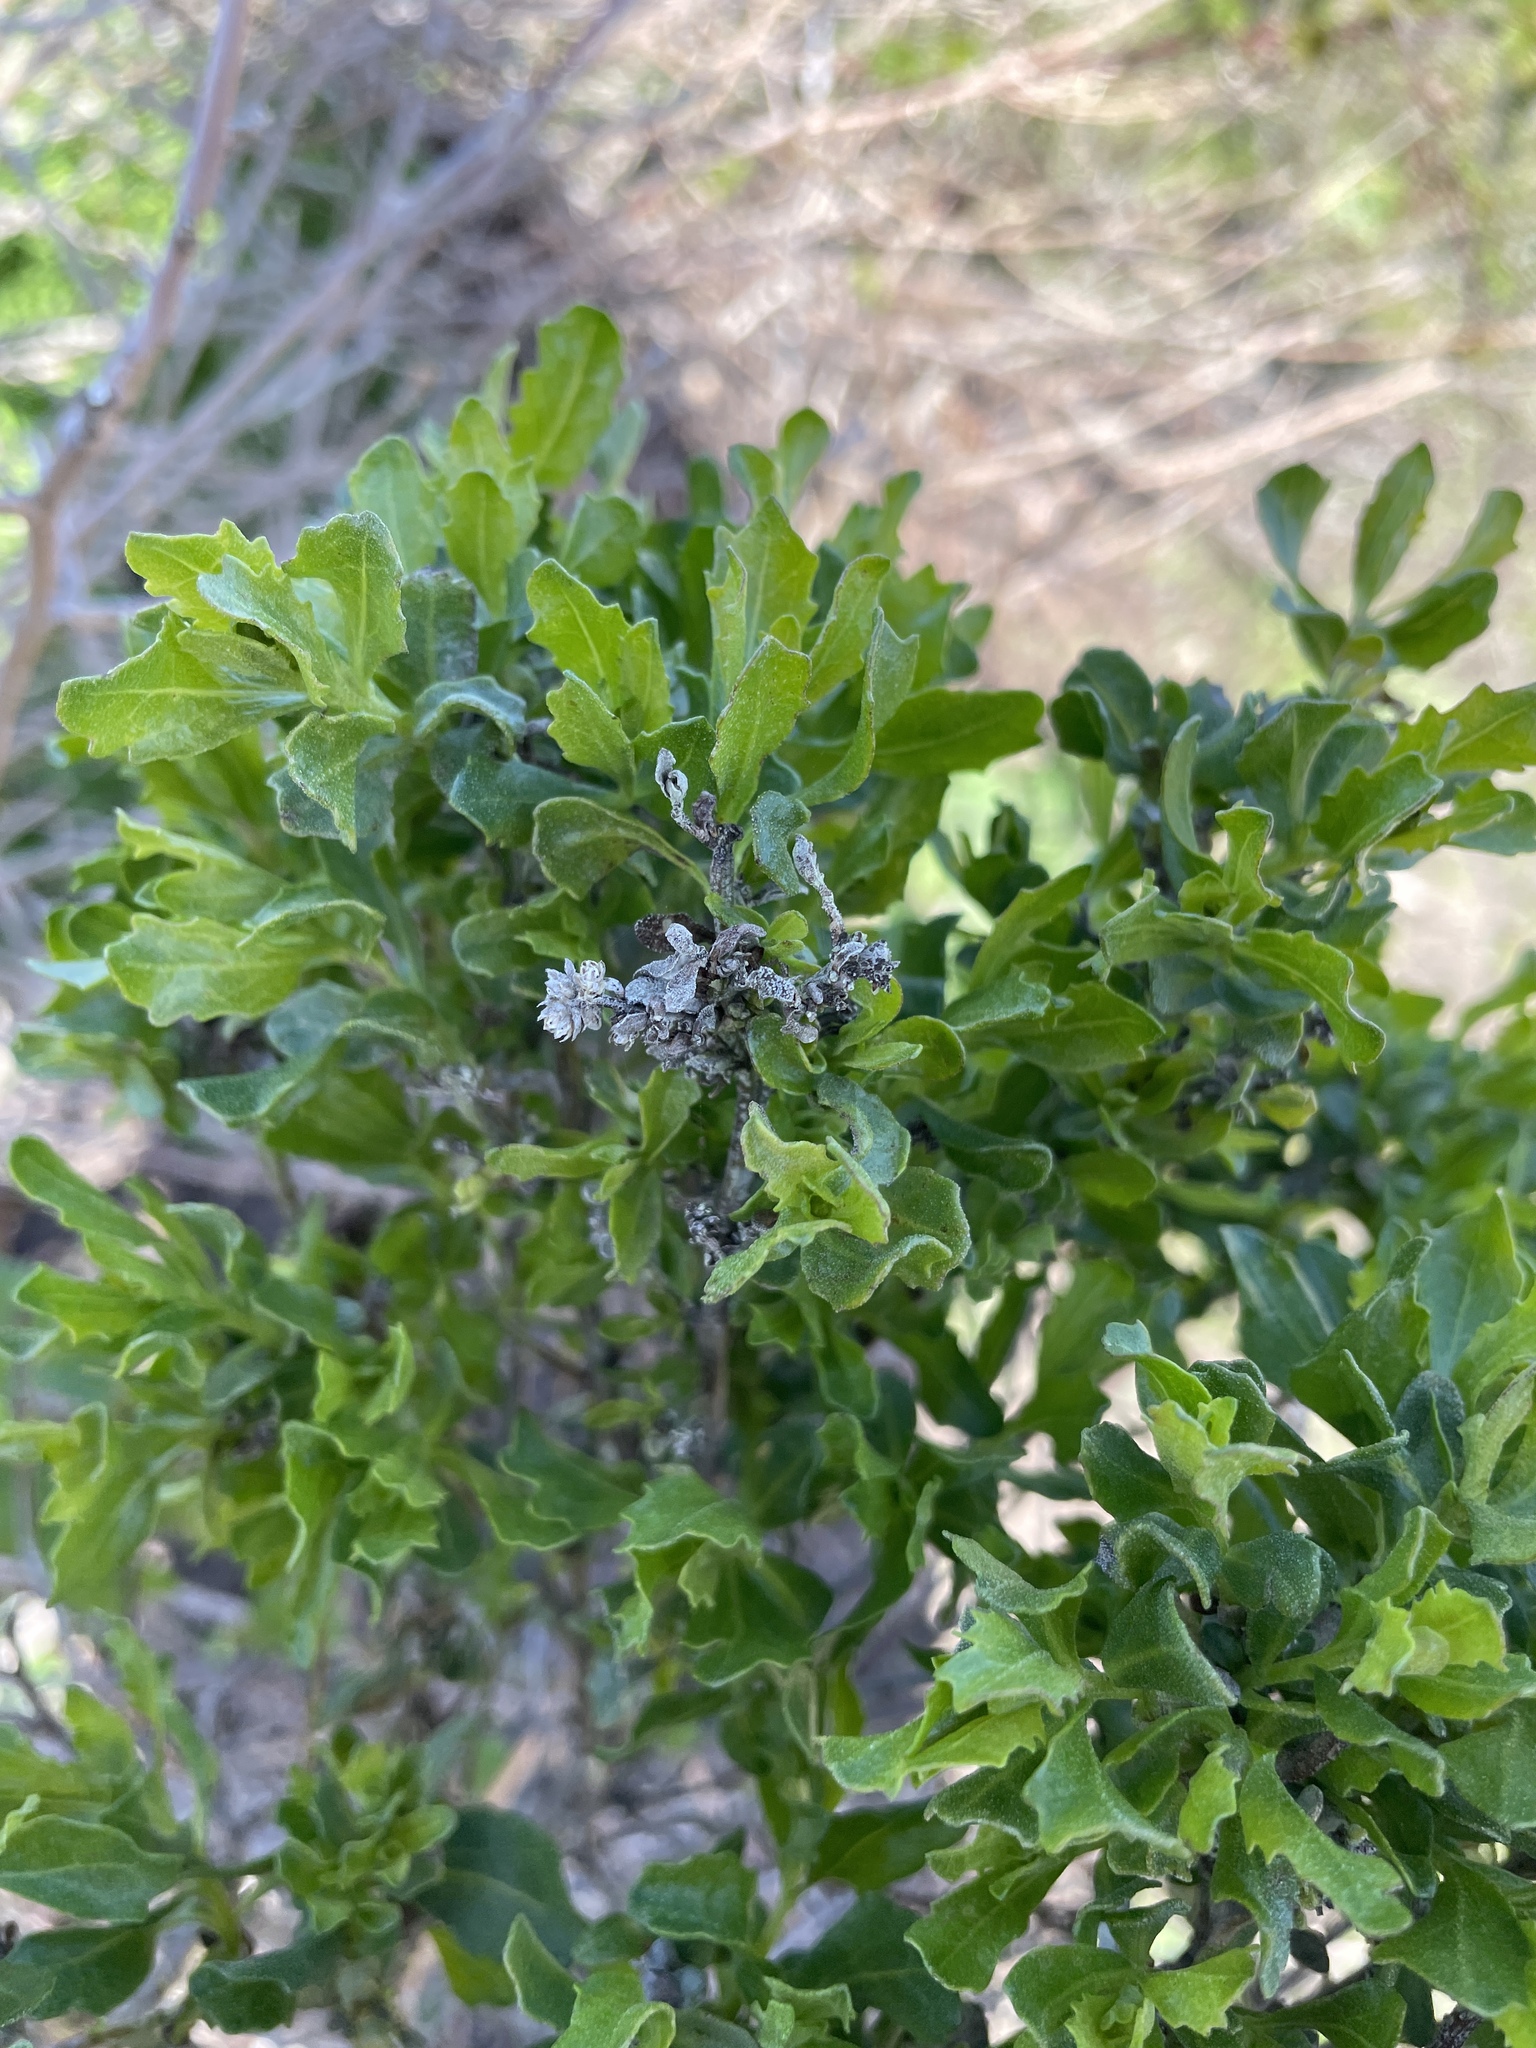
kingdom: Plantae
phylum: Tracheophyta
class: Magnoliopsida
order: Asterales
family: Asteraceae
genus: Baccharis
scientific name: Baccharis pilularis
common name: Coyotebrush
